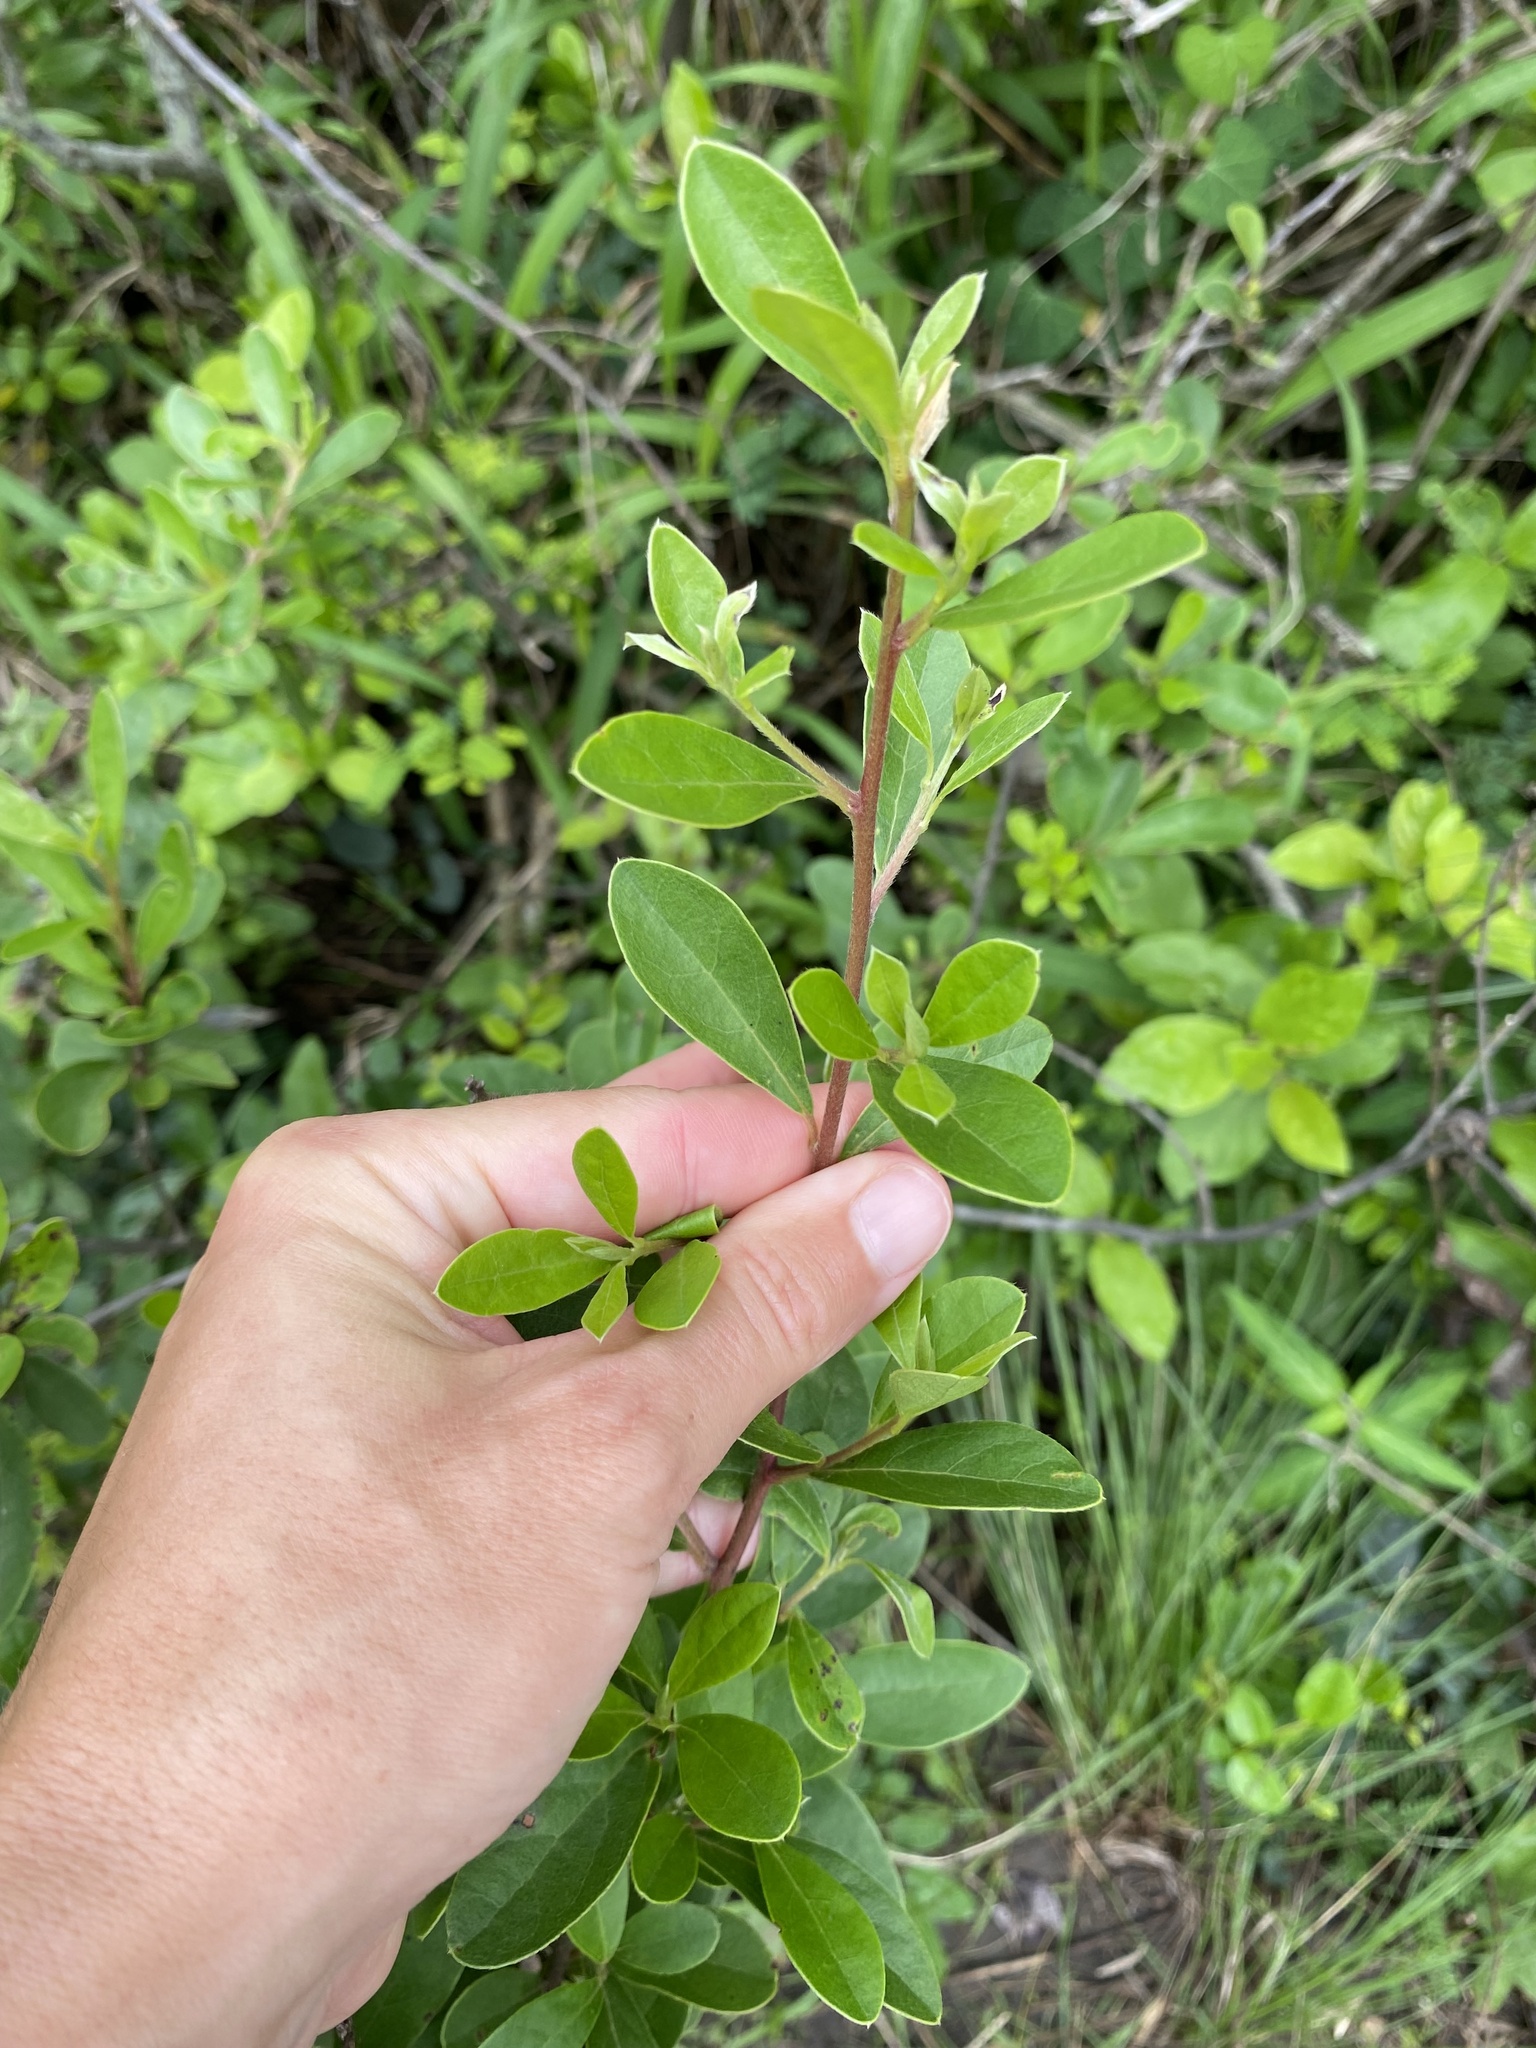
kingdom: Plantae
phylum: Tracheophyta
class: Magnoliopsida
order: Ericales
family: Ebenaceae
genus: Diospyros
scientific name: Diospyros lycioides
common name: Red star apple
